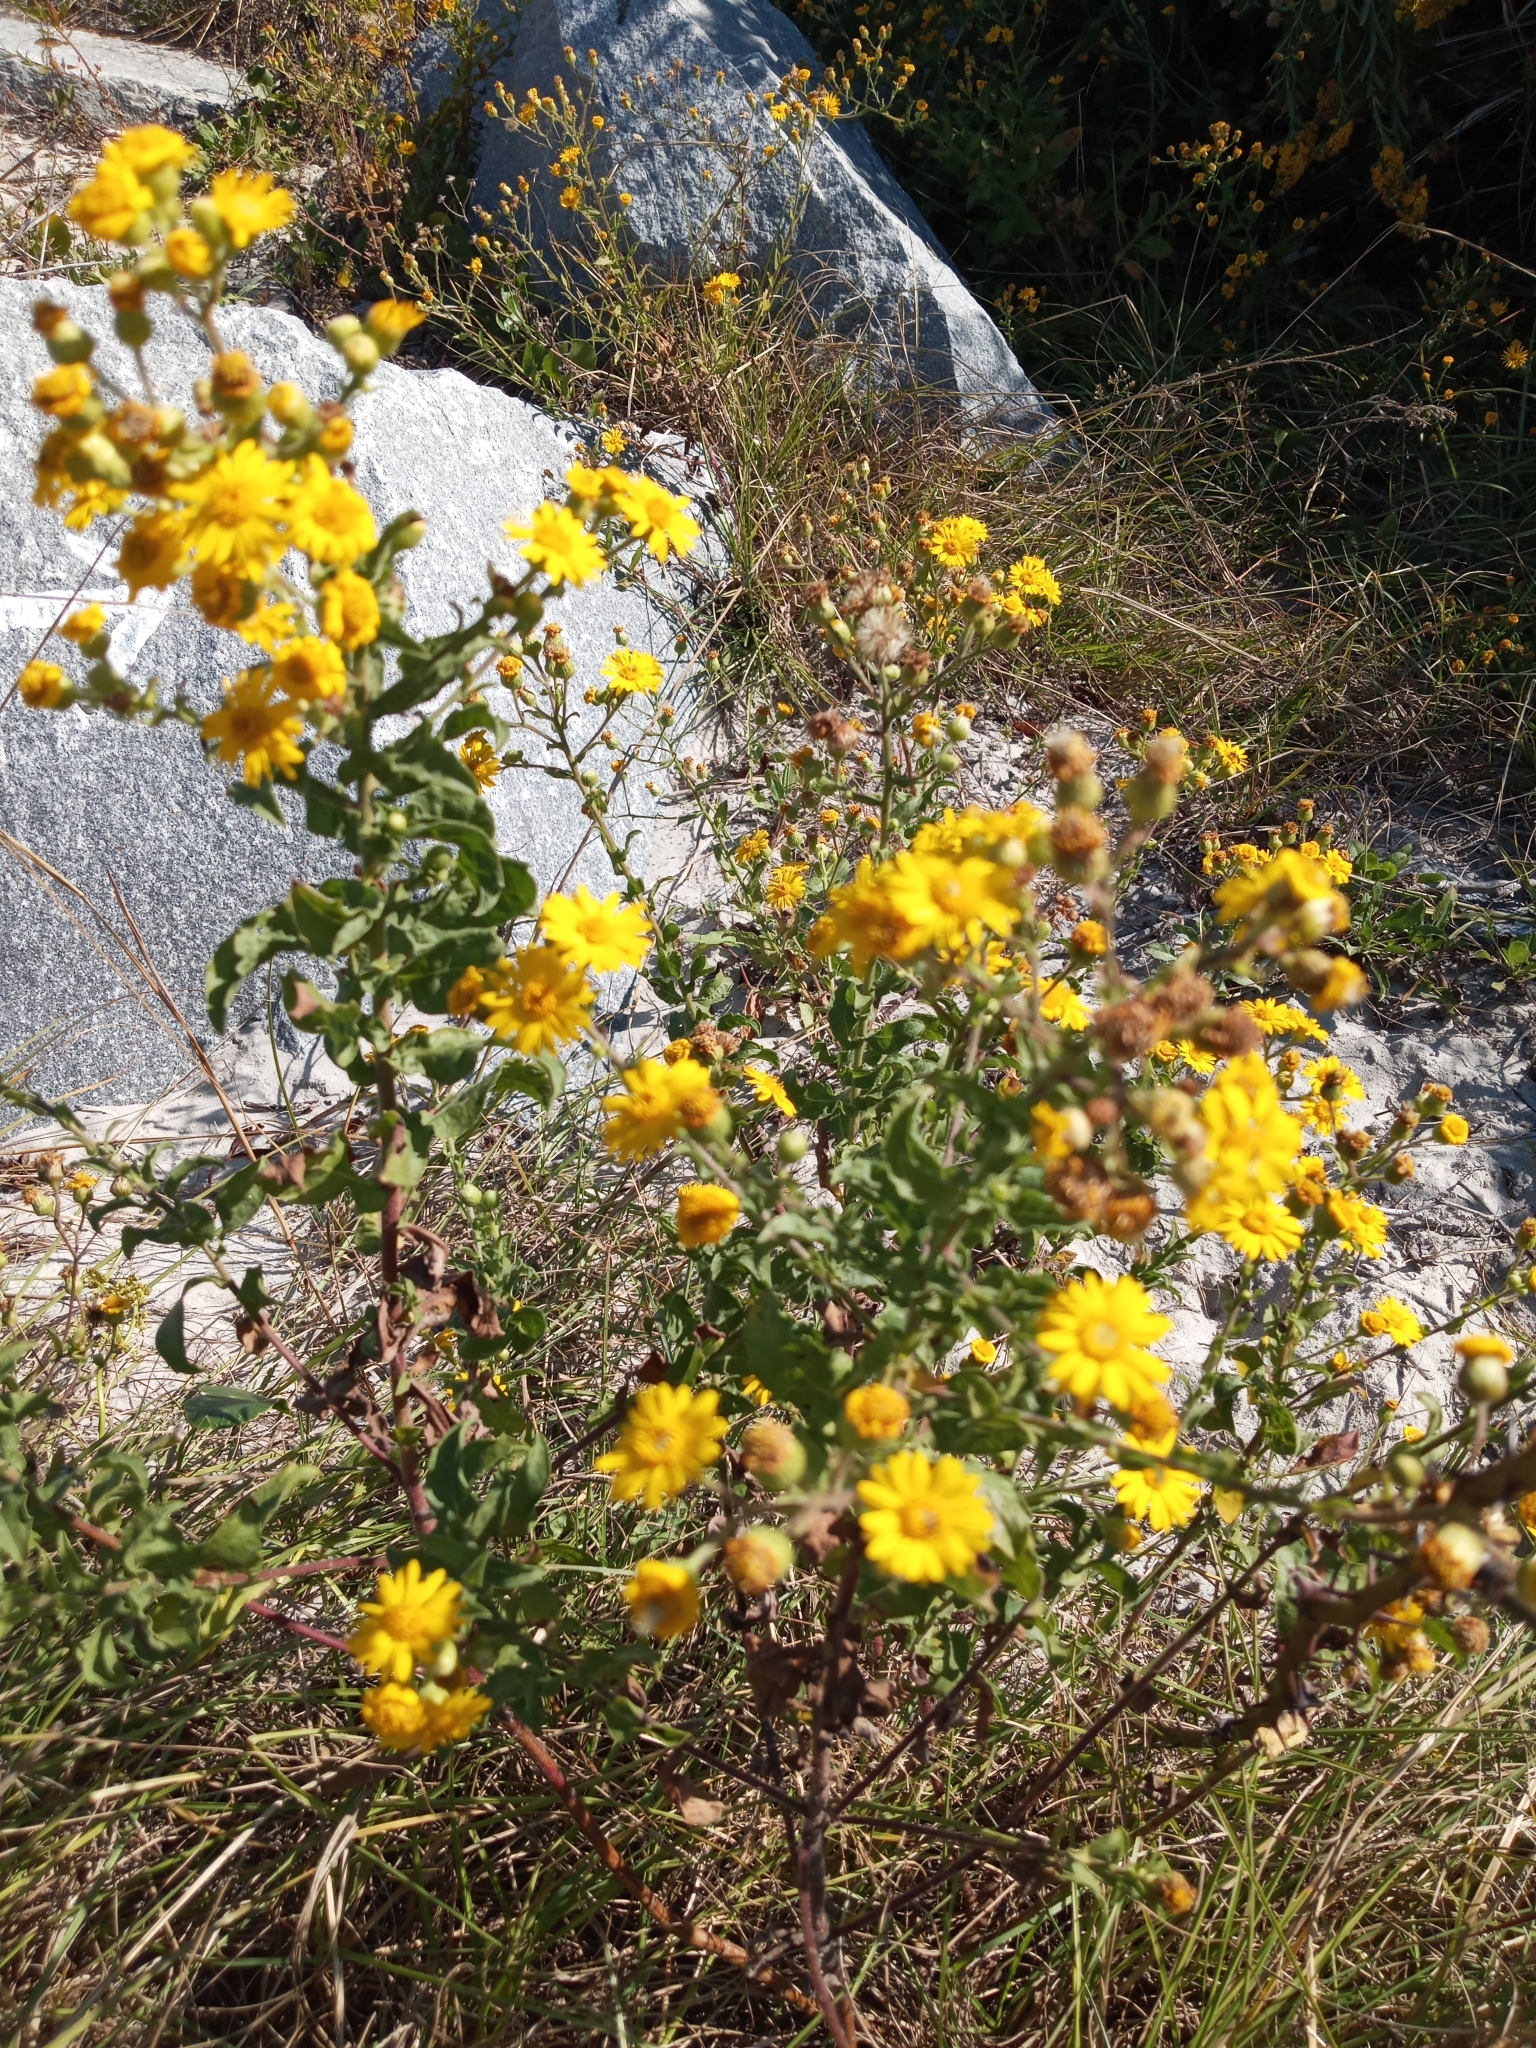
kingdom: Plantae
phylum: Tracheophyta
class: Magnoliopsida
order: Asterales
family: Asteraceae
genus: Heterotheca
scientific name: Heterotheca subaxillaris
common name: Camphorweed
